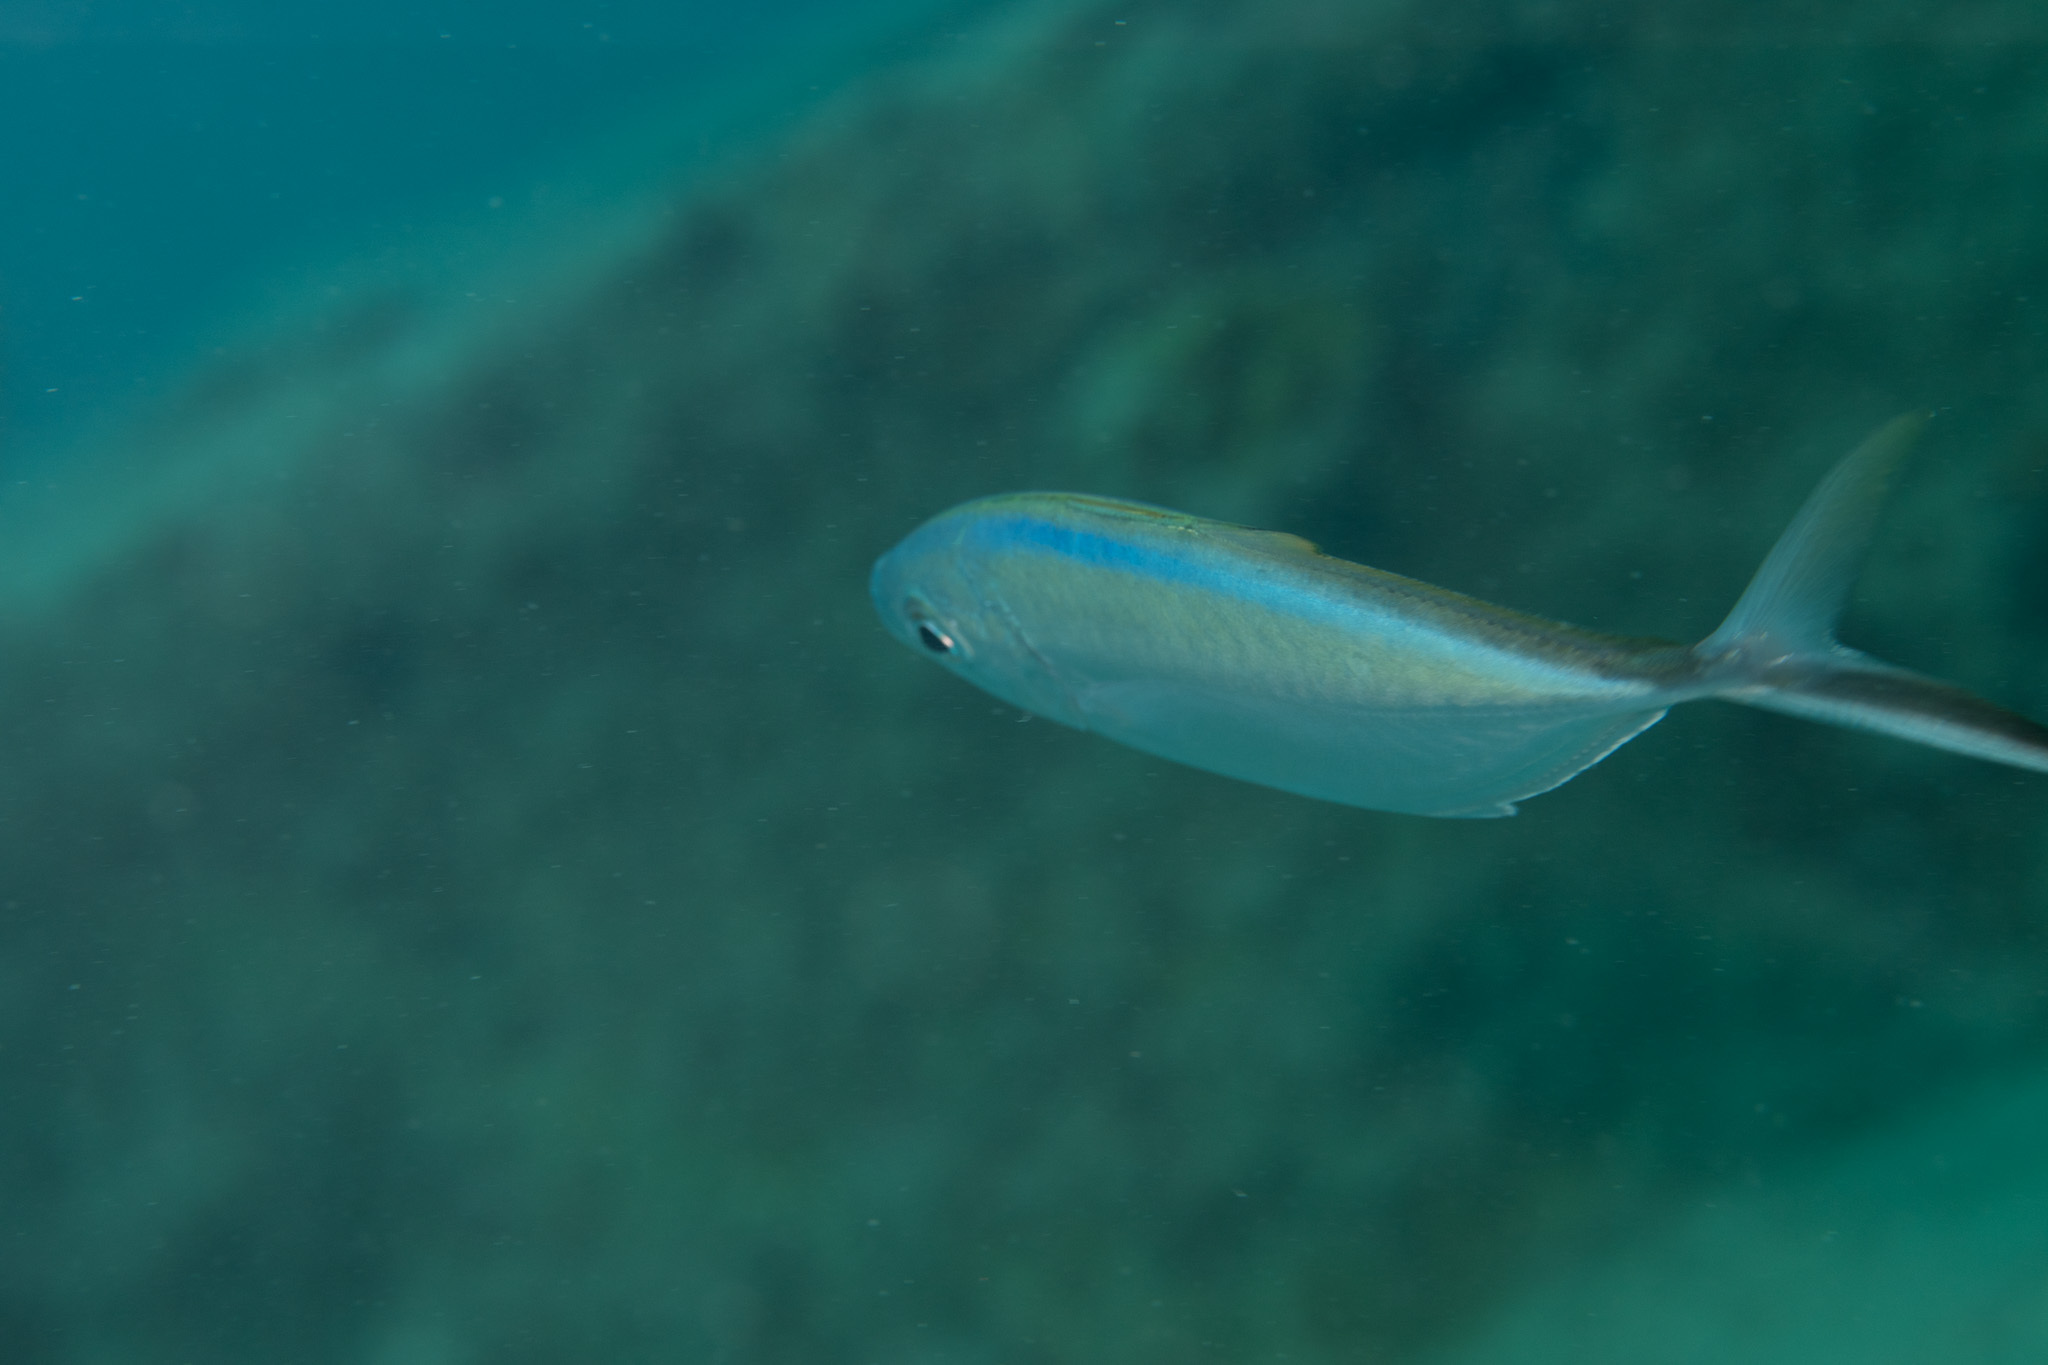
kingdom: Animalia
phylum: Chordata
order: Perciformes
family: Carangidae
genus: Caranx
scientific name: Caranx ruber
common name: Bar jack
